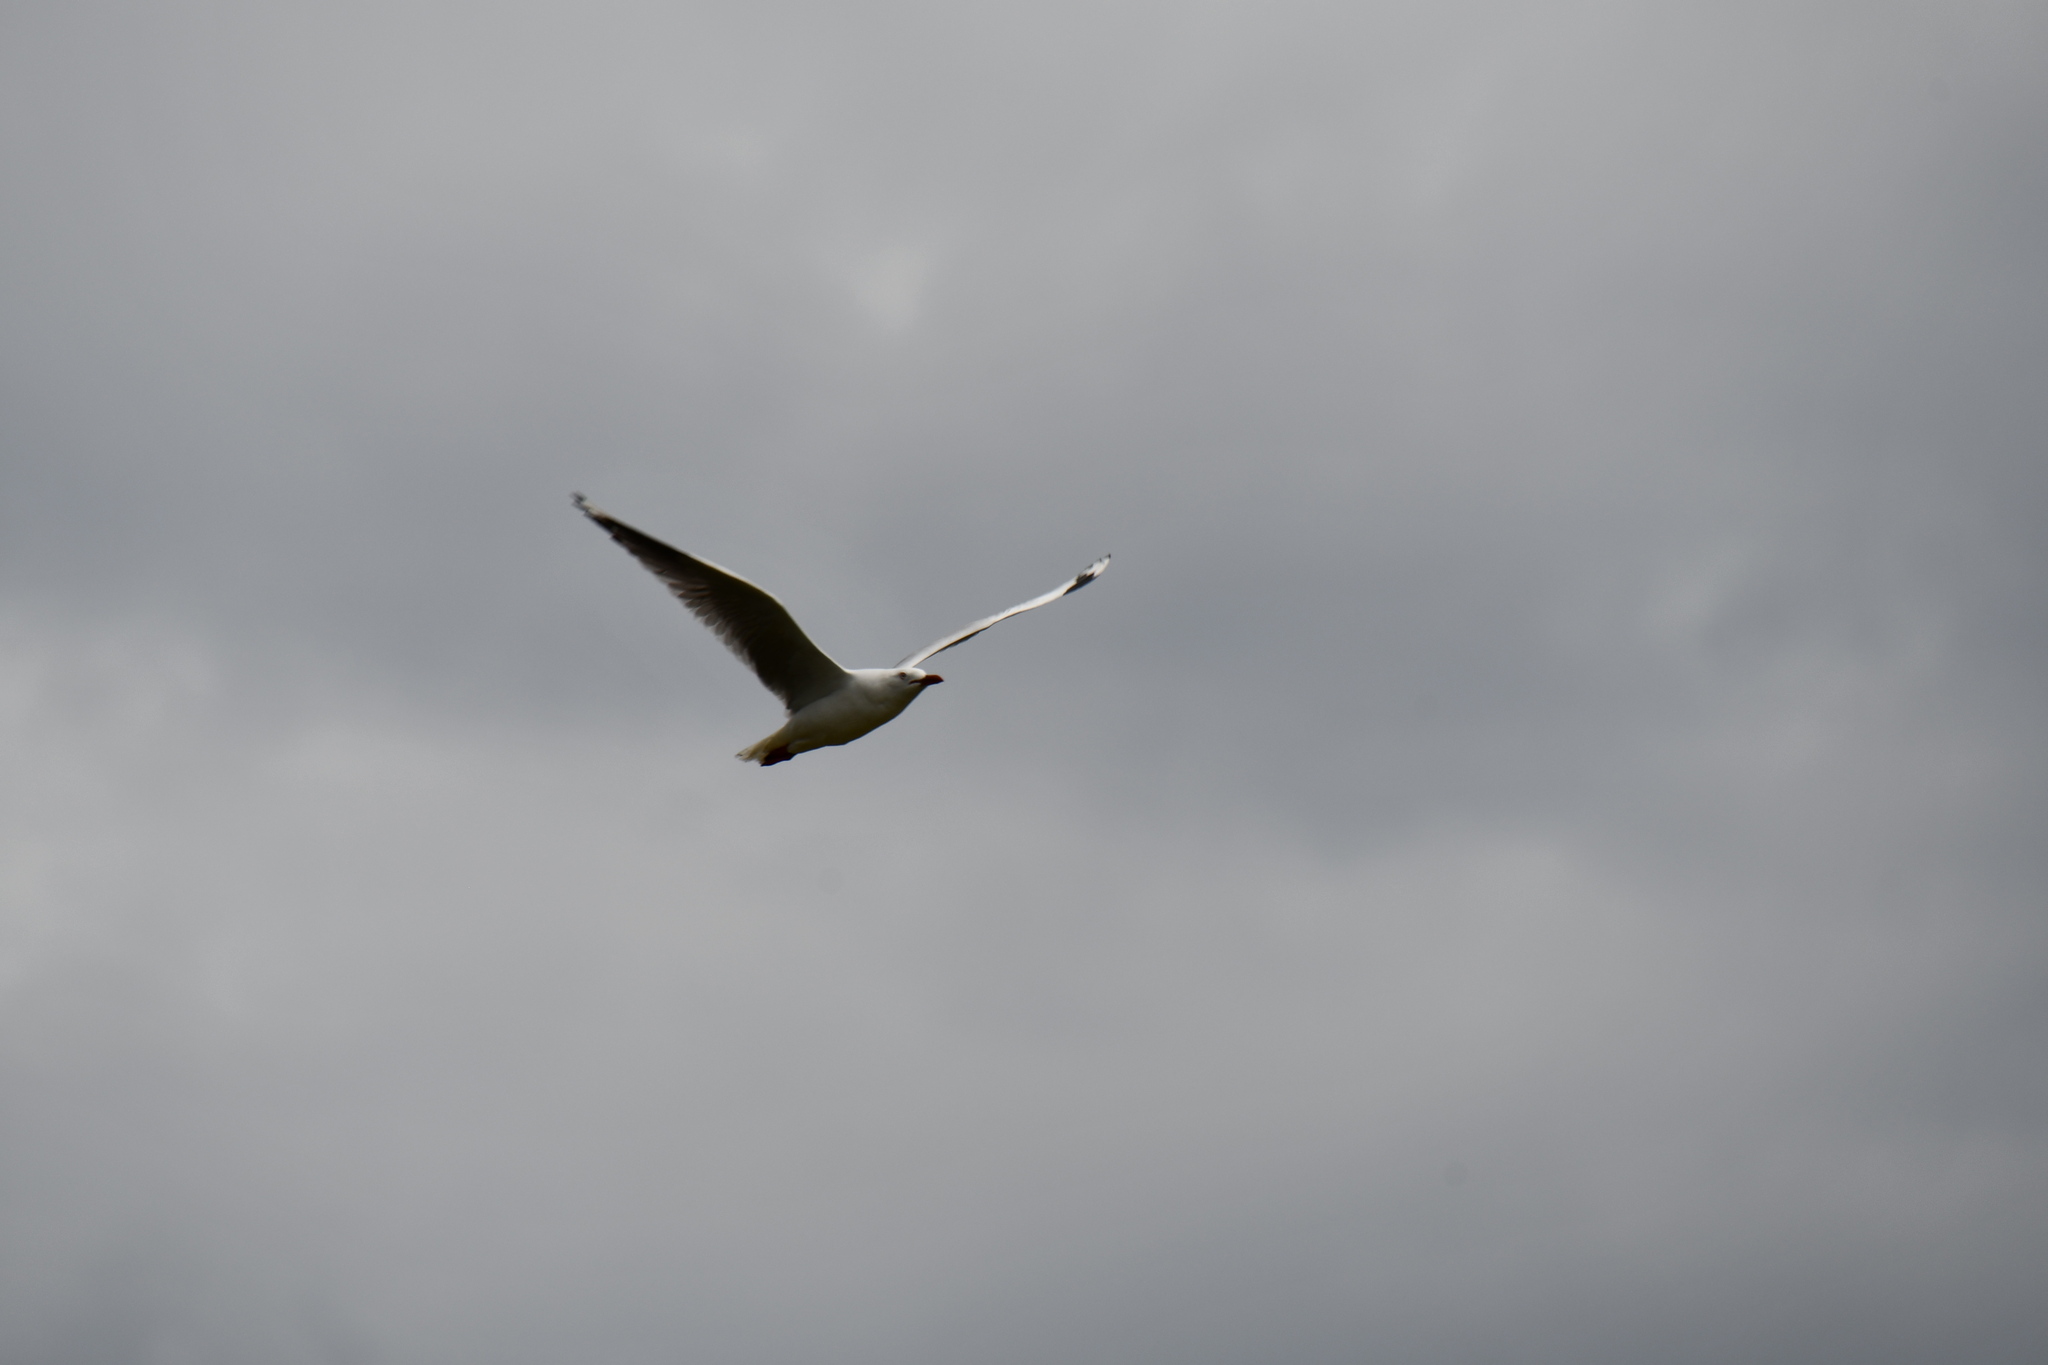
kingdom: Animalia
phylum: Chordata
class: Aves
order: Charadriiformes
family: Laridae
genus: Chroicocephalus
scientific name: Chroicocephalus novaehollandiae
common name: Silver gull
